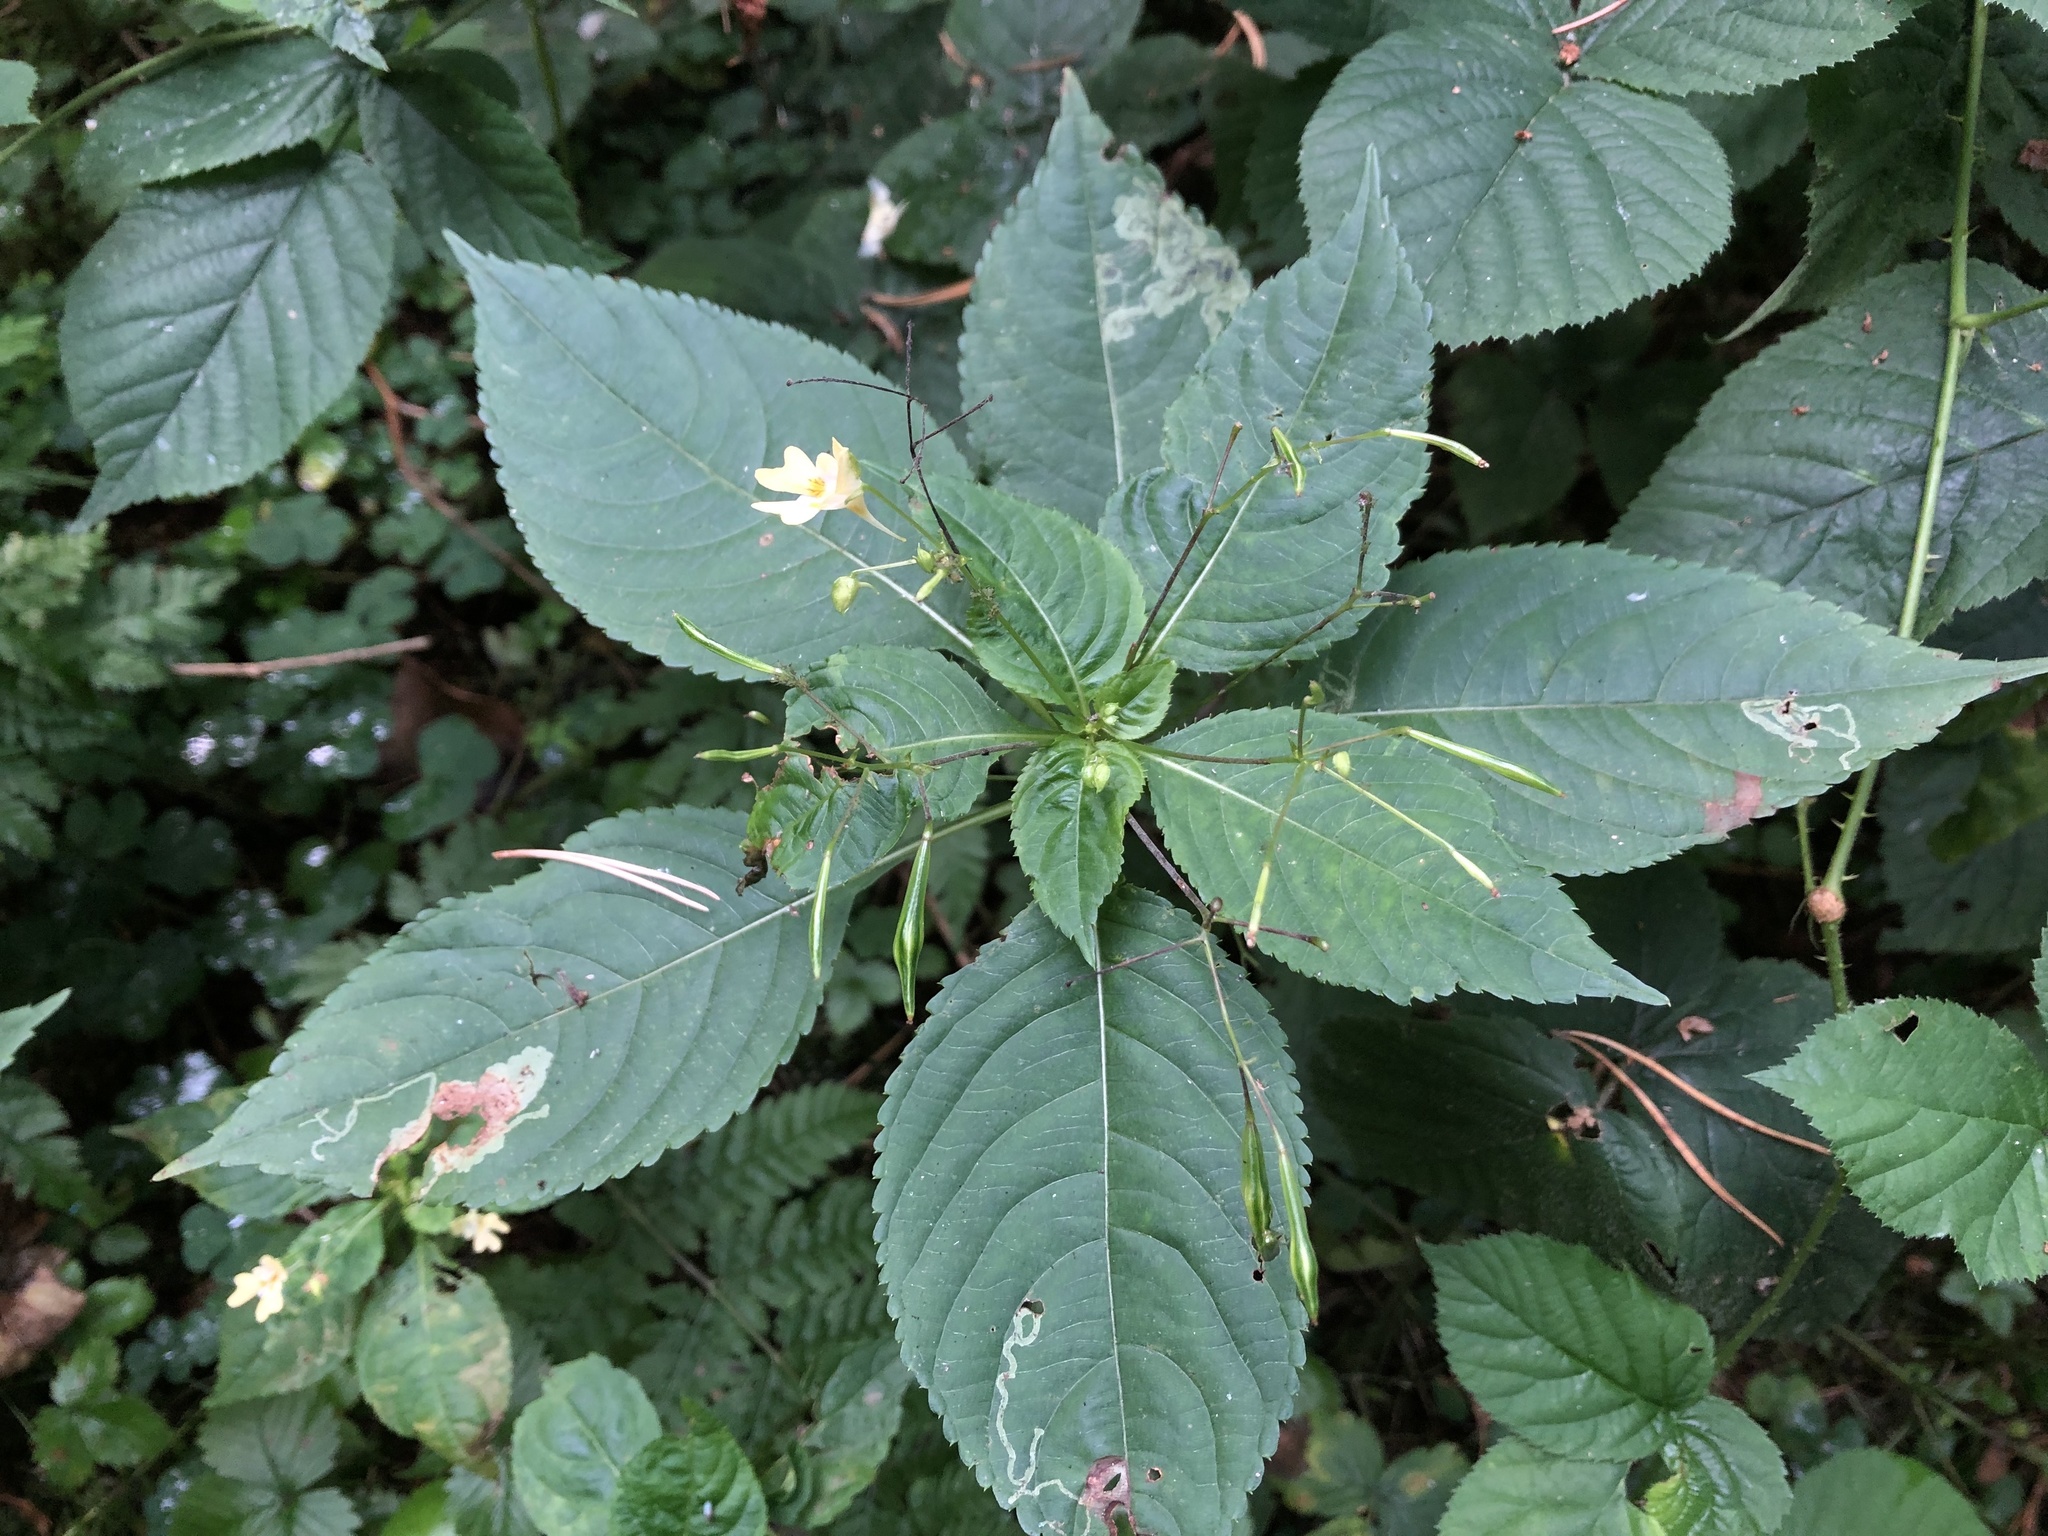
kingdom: Plantae
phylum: Tracheophyta
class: Magnoliopsida
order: Ericales
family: Balsaminaceae
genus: Impatiens
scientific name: Impatiens parviflora
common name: Small balsam
